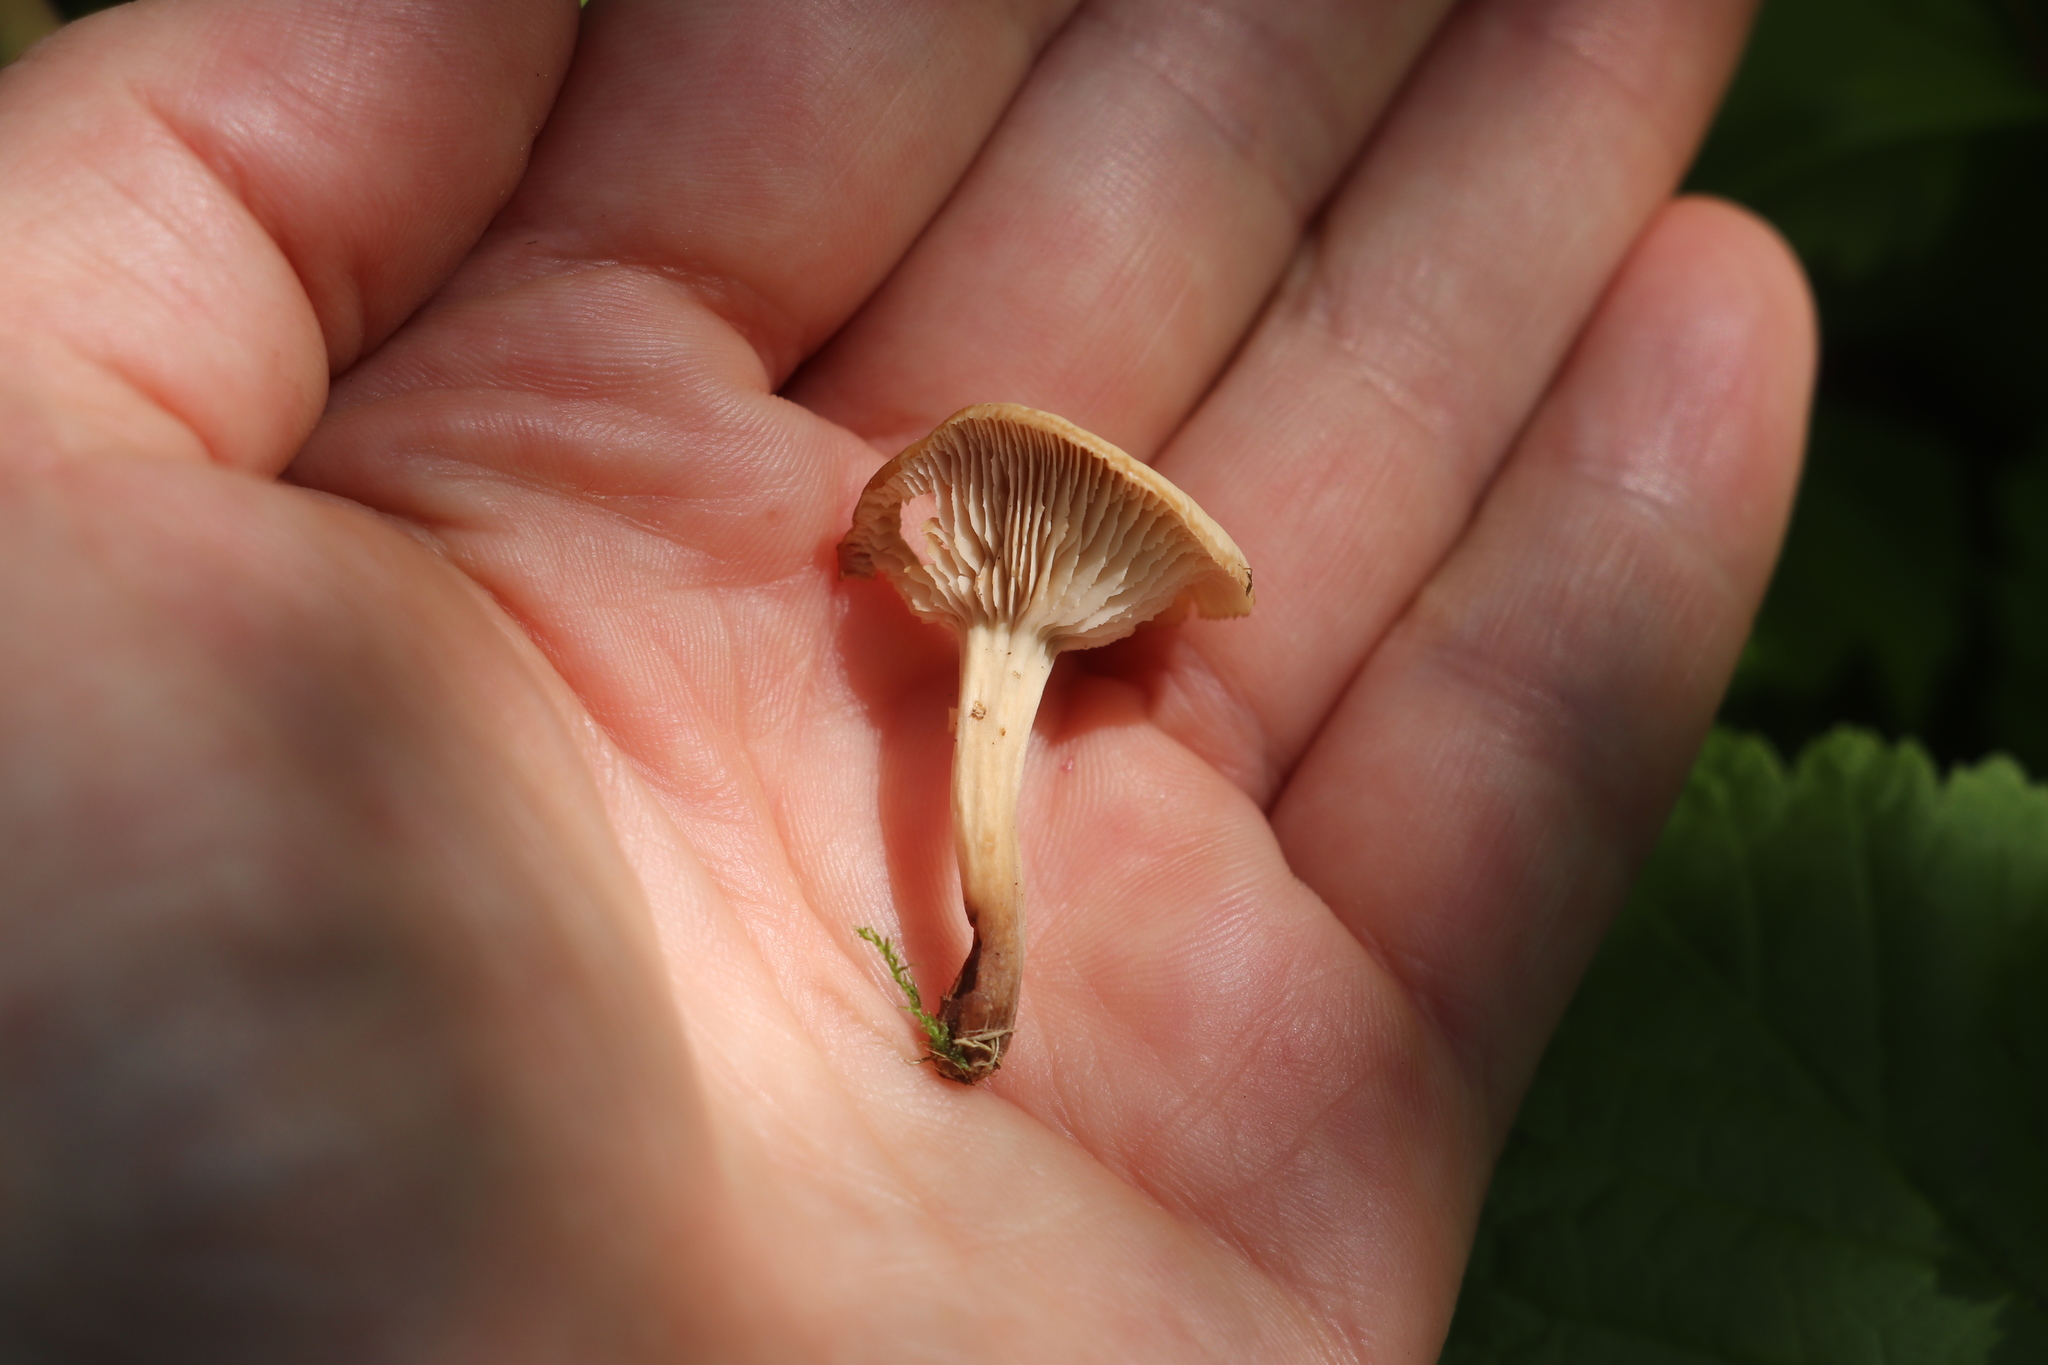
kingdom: Fungi
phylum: Basidiomycota
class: Agaricomycetes
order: Russulales
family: Auriscalpiaceae
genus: Lentinellus
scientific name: Lentinellus micheneri
